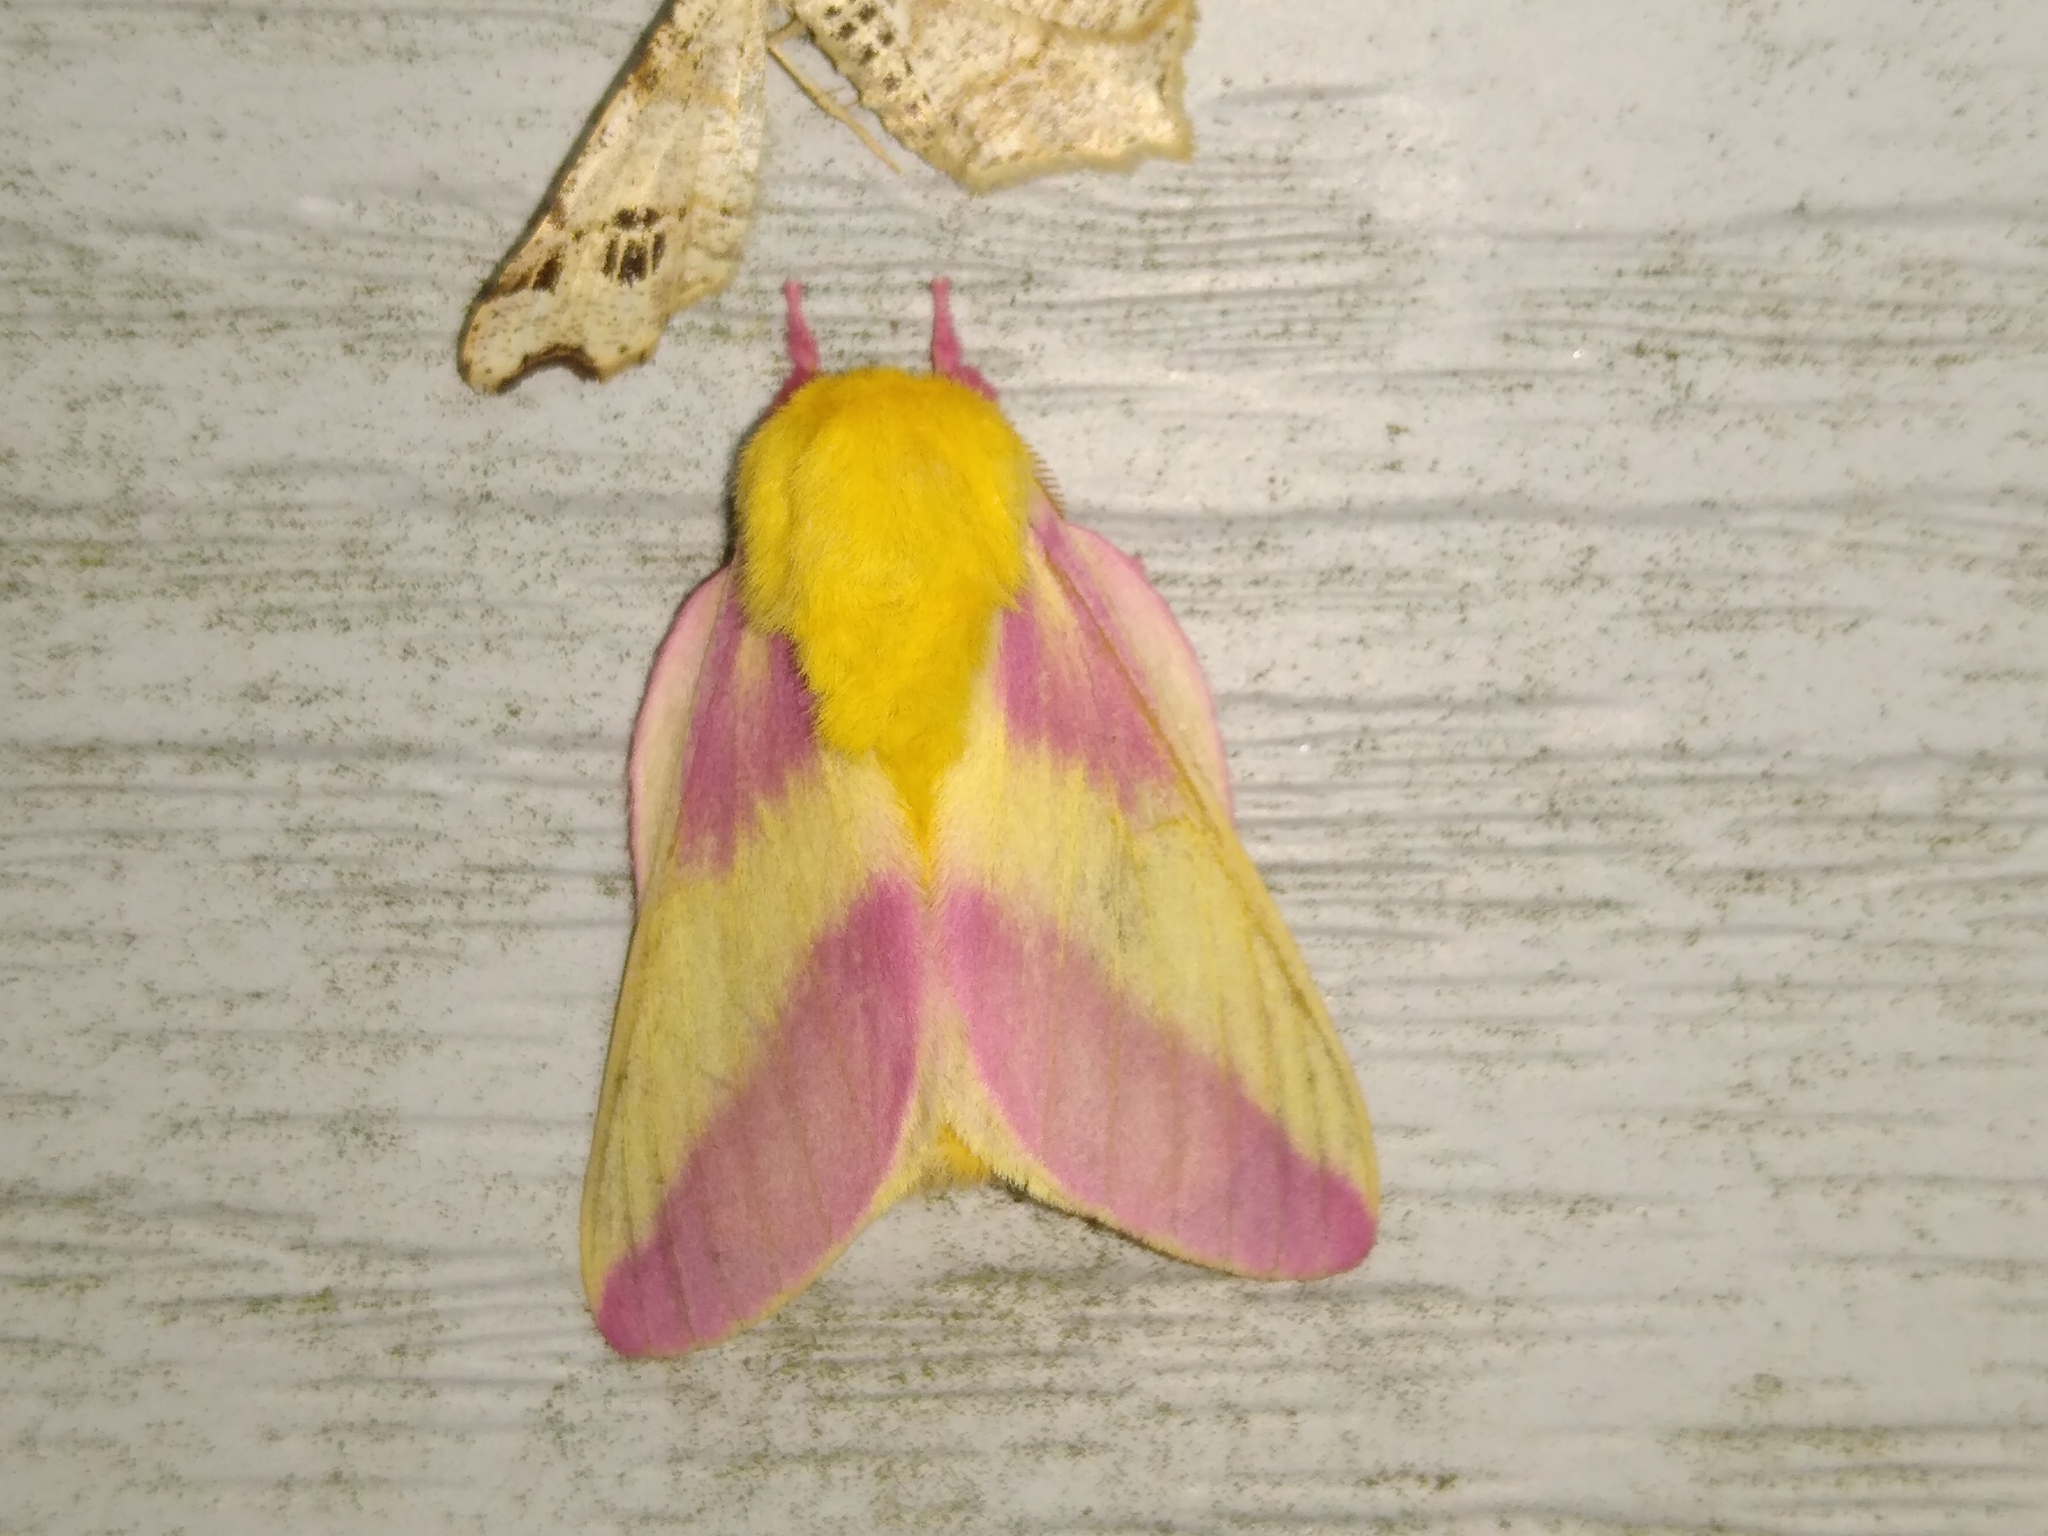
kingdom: Animalia
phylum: Arthropoda
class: Insecta
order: Lepidoptera
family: Saturniidae
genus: Dryocampa
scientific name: Dryocampa rubicunda
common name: Rosy maple moth
